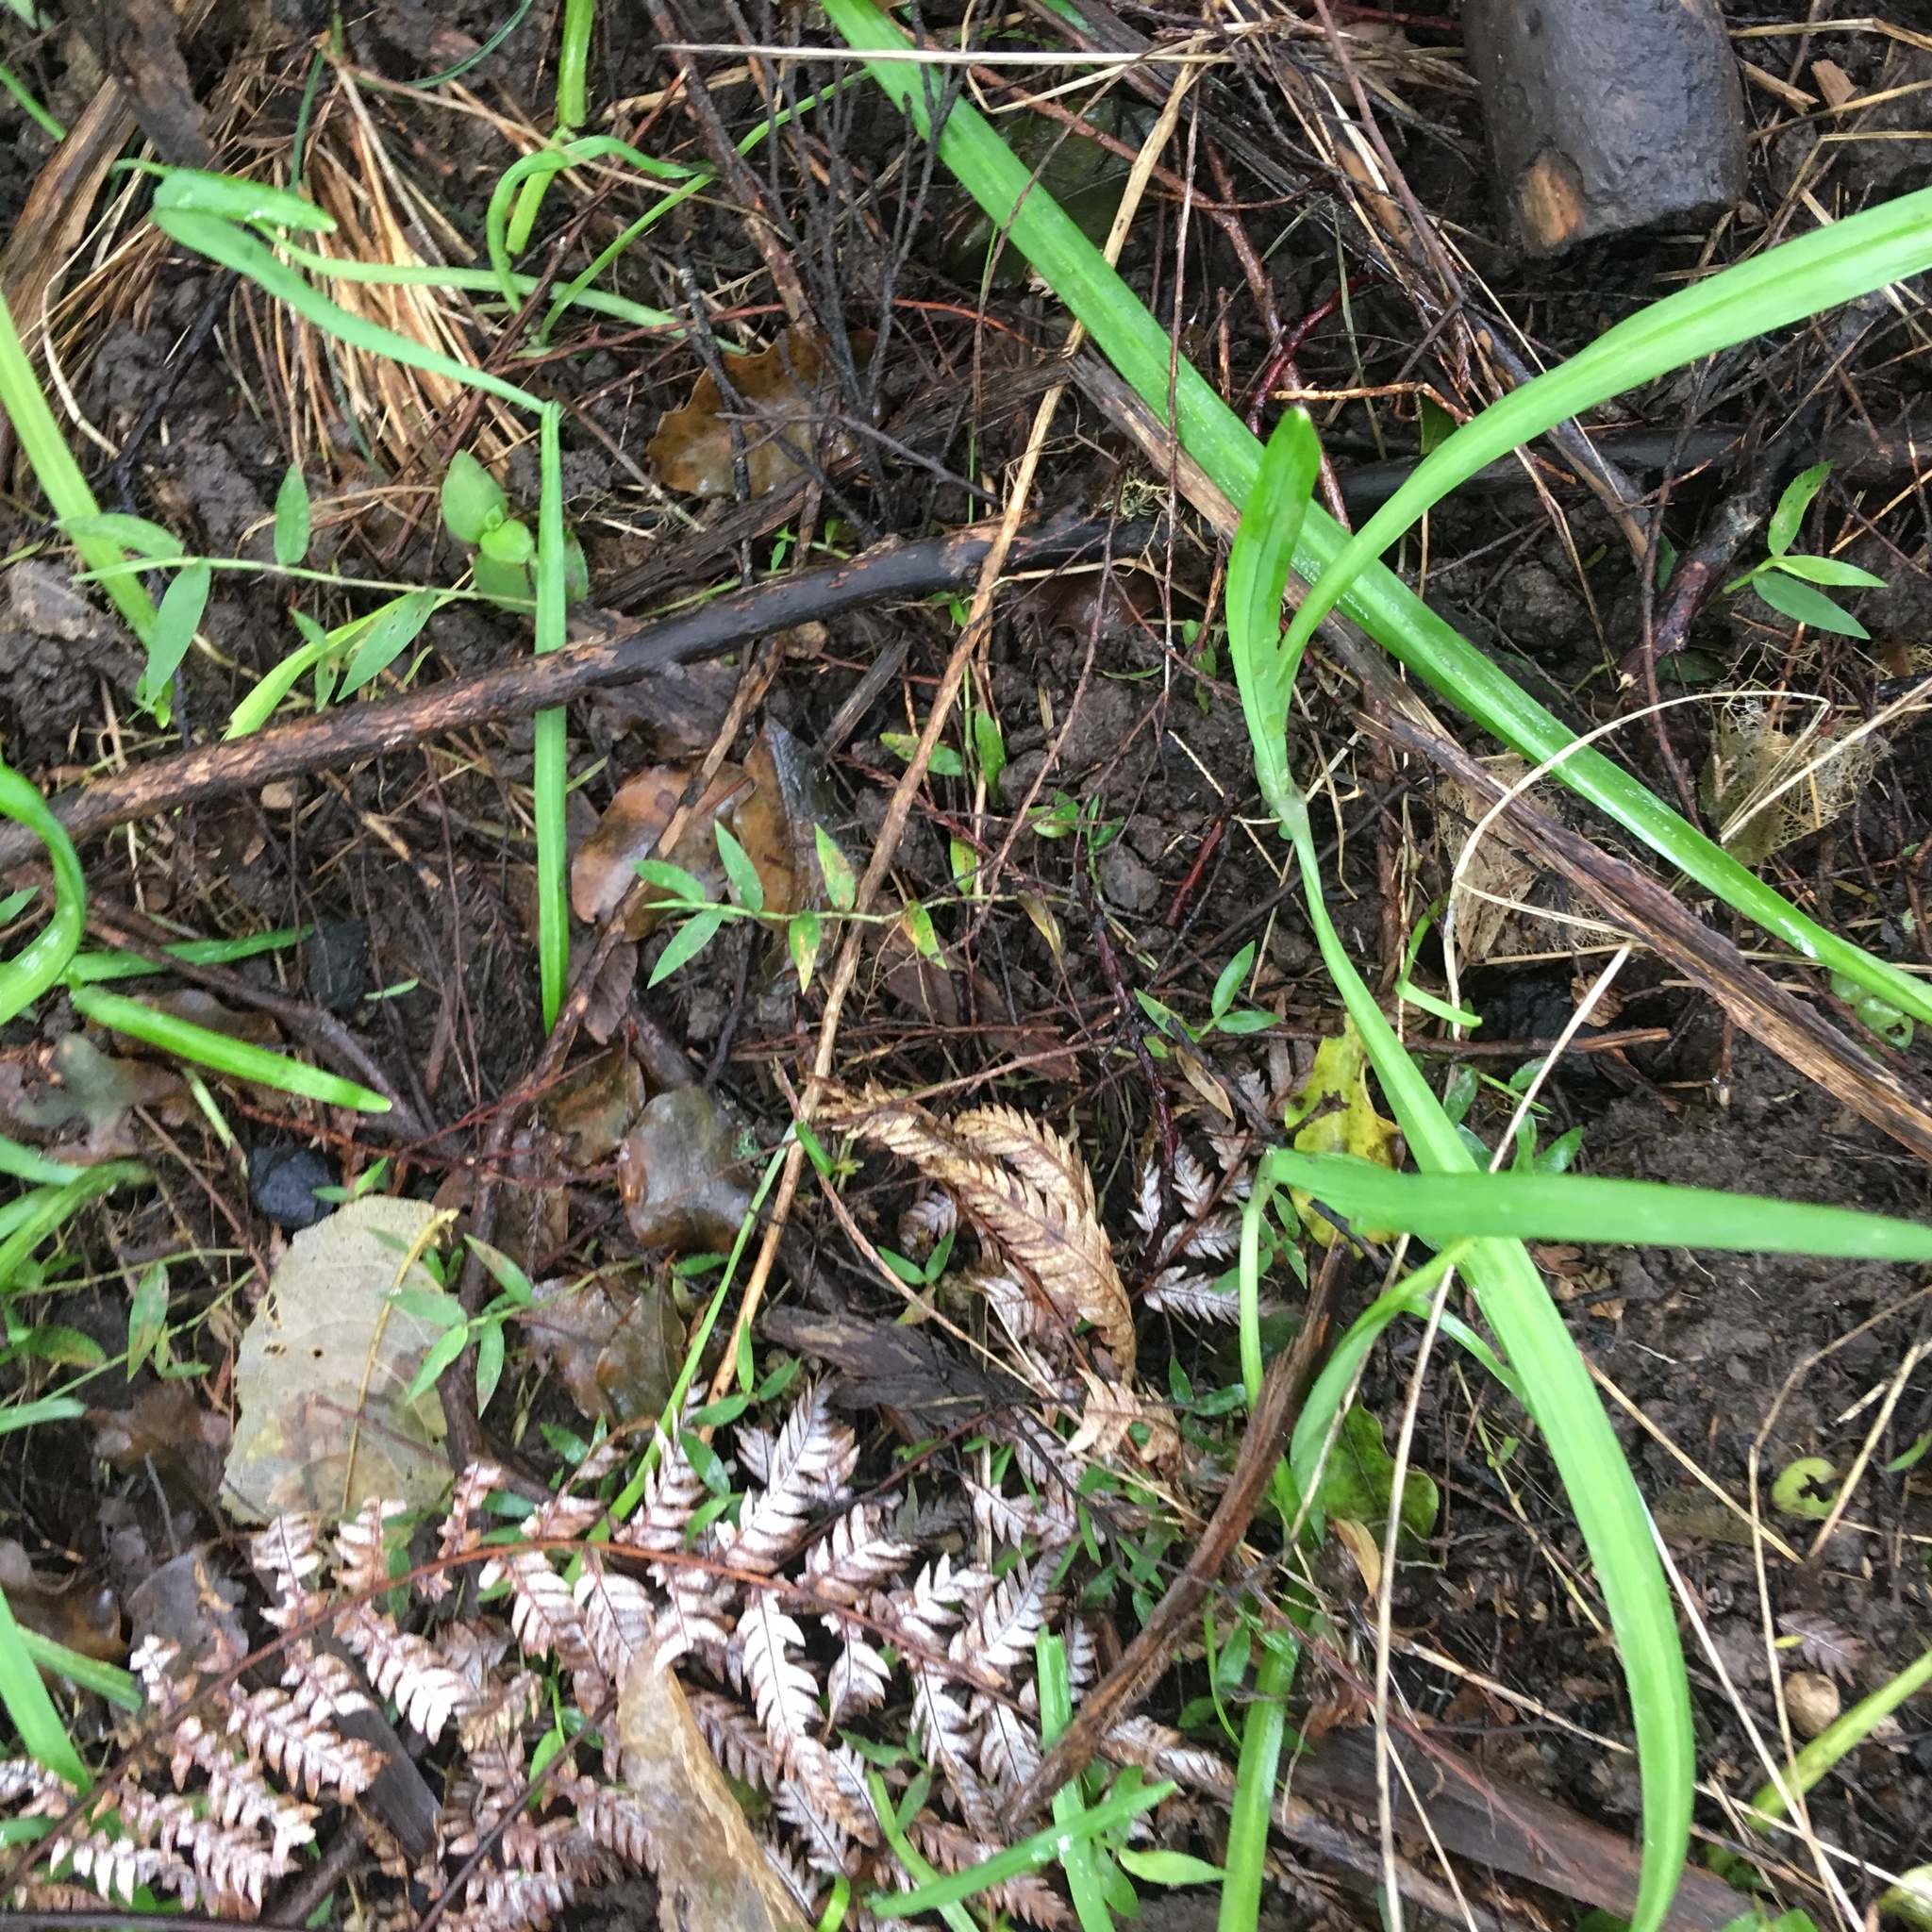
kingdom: Plantae
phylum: Tracheophyta
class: Liliopsida
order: Poales
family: Poaceae
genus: Oplismenus
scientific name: Oplismenus hirtellus
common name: Basketgrass
